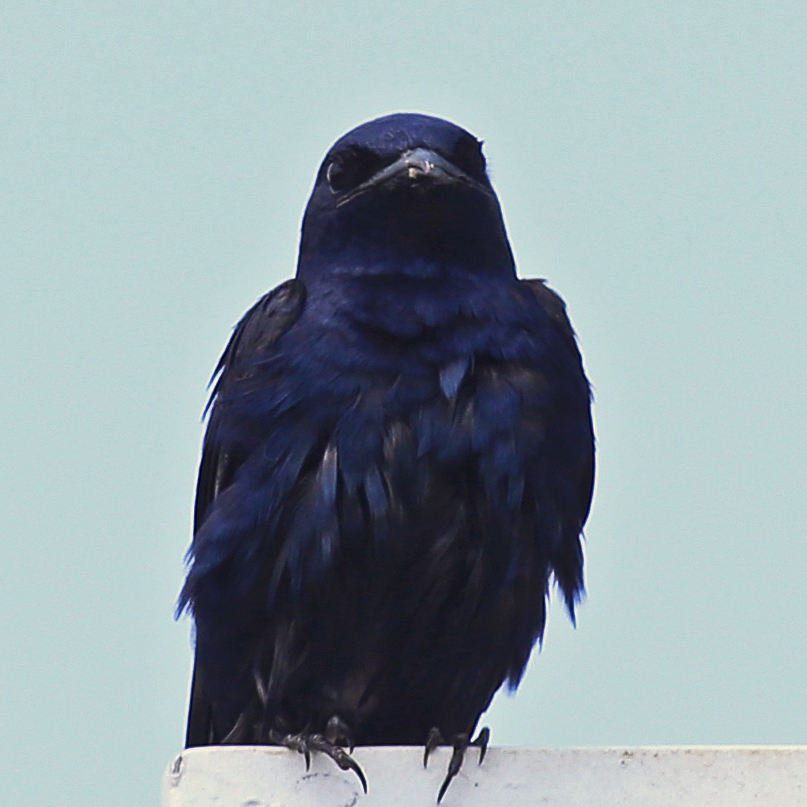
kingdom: Animalia
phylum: Chordata
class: Aves
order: Passeriformes
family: Hirundinidae
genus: Progne
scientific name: Progne subis
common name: Purple martin
